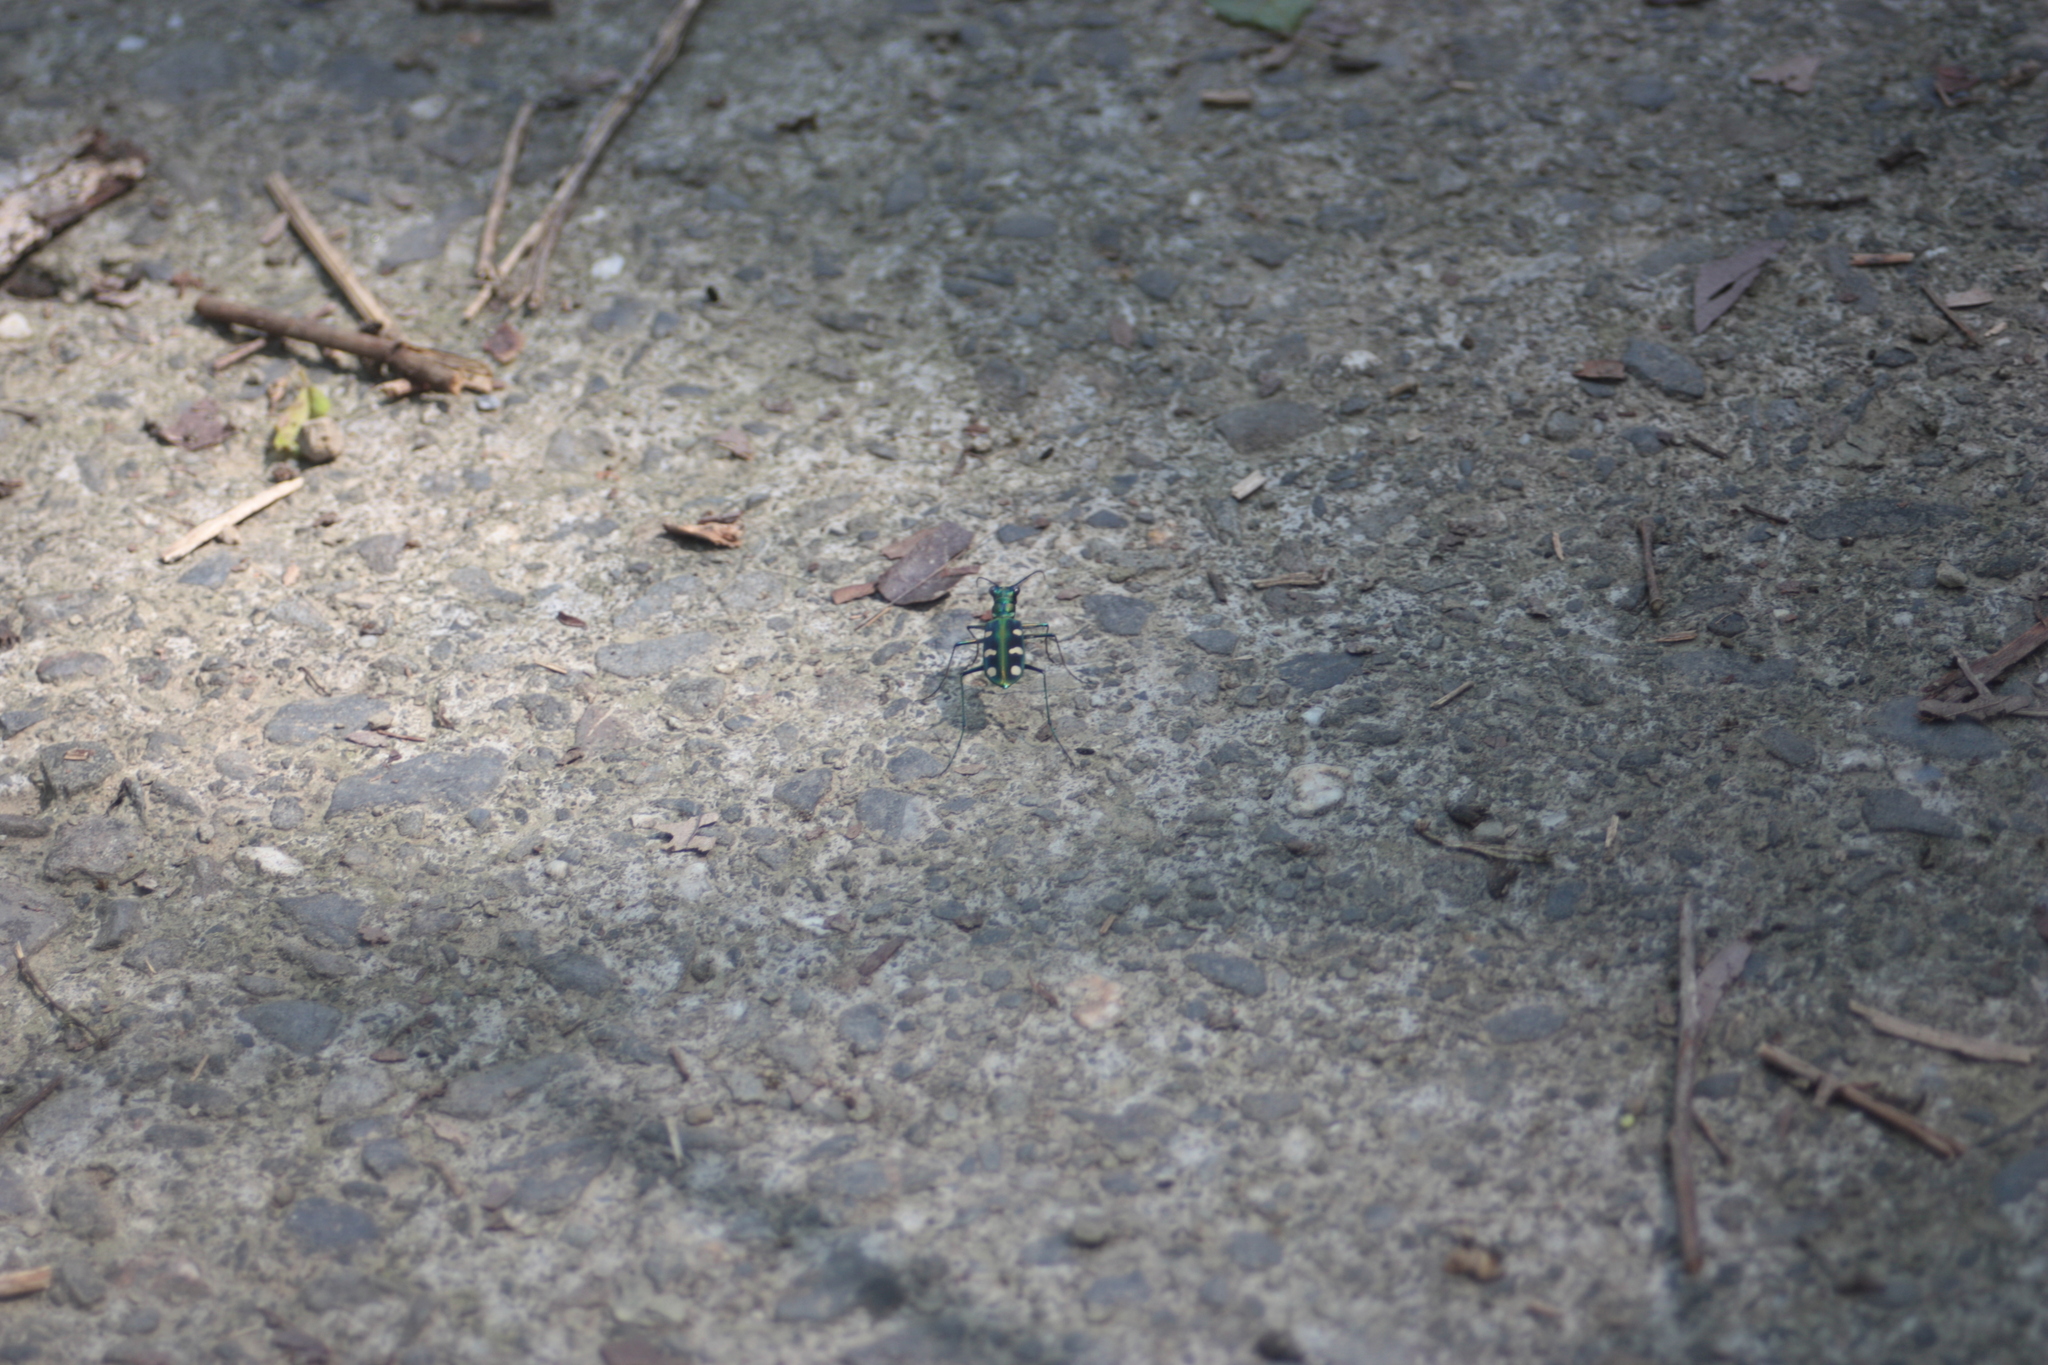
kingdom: Animalia
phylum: Arthropoda
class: Insecta
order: Coleoptera
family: Carabidae
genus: Cicindela
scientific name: Cicindela batesi
